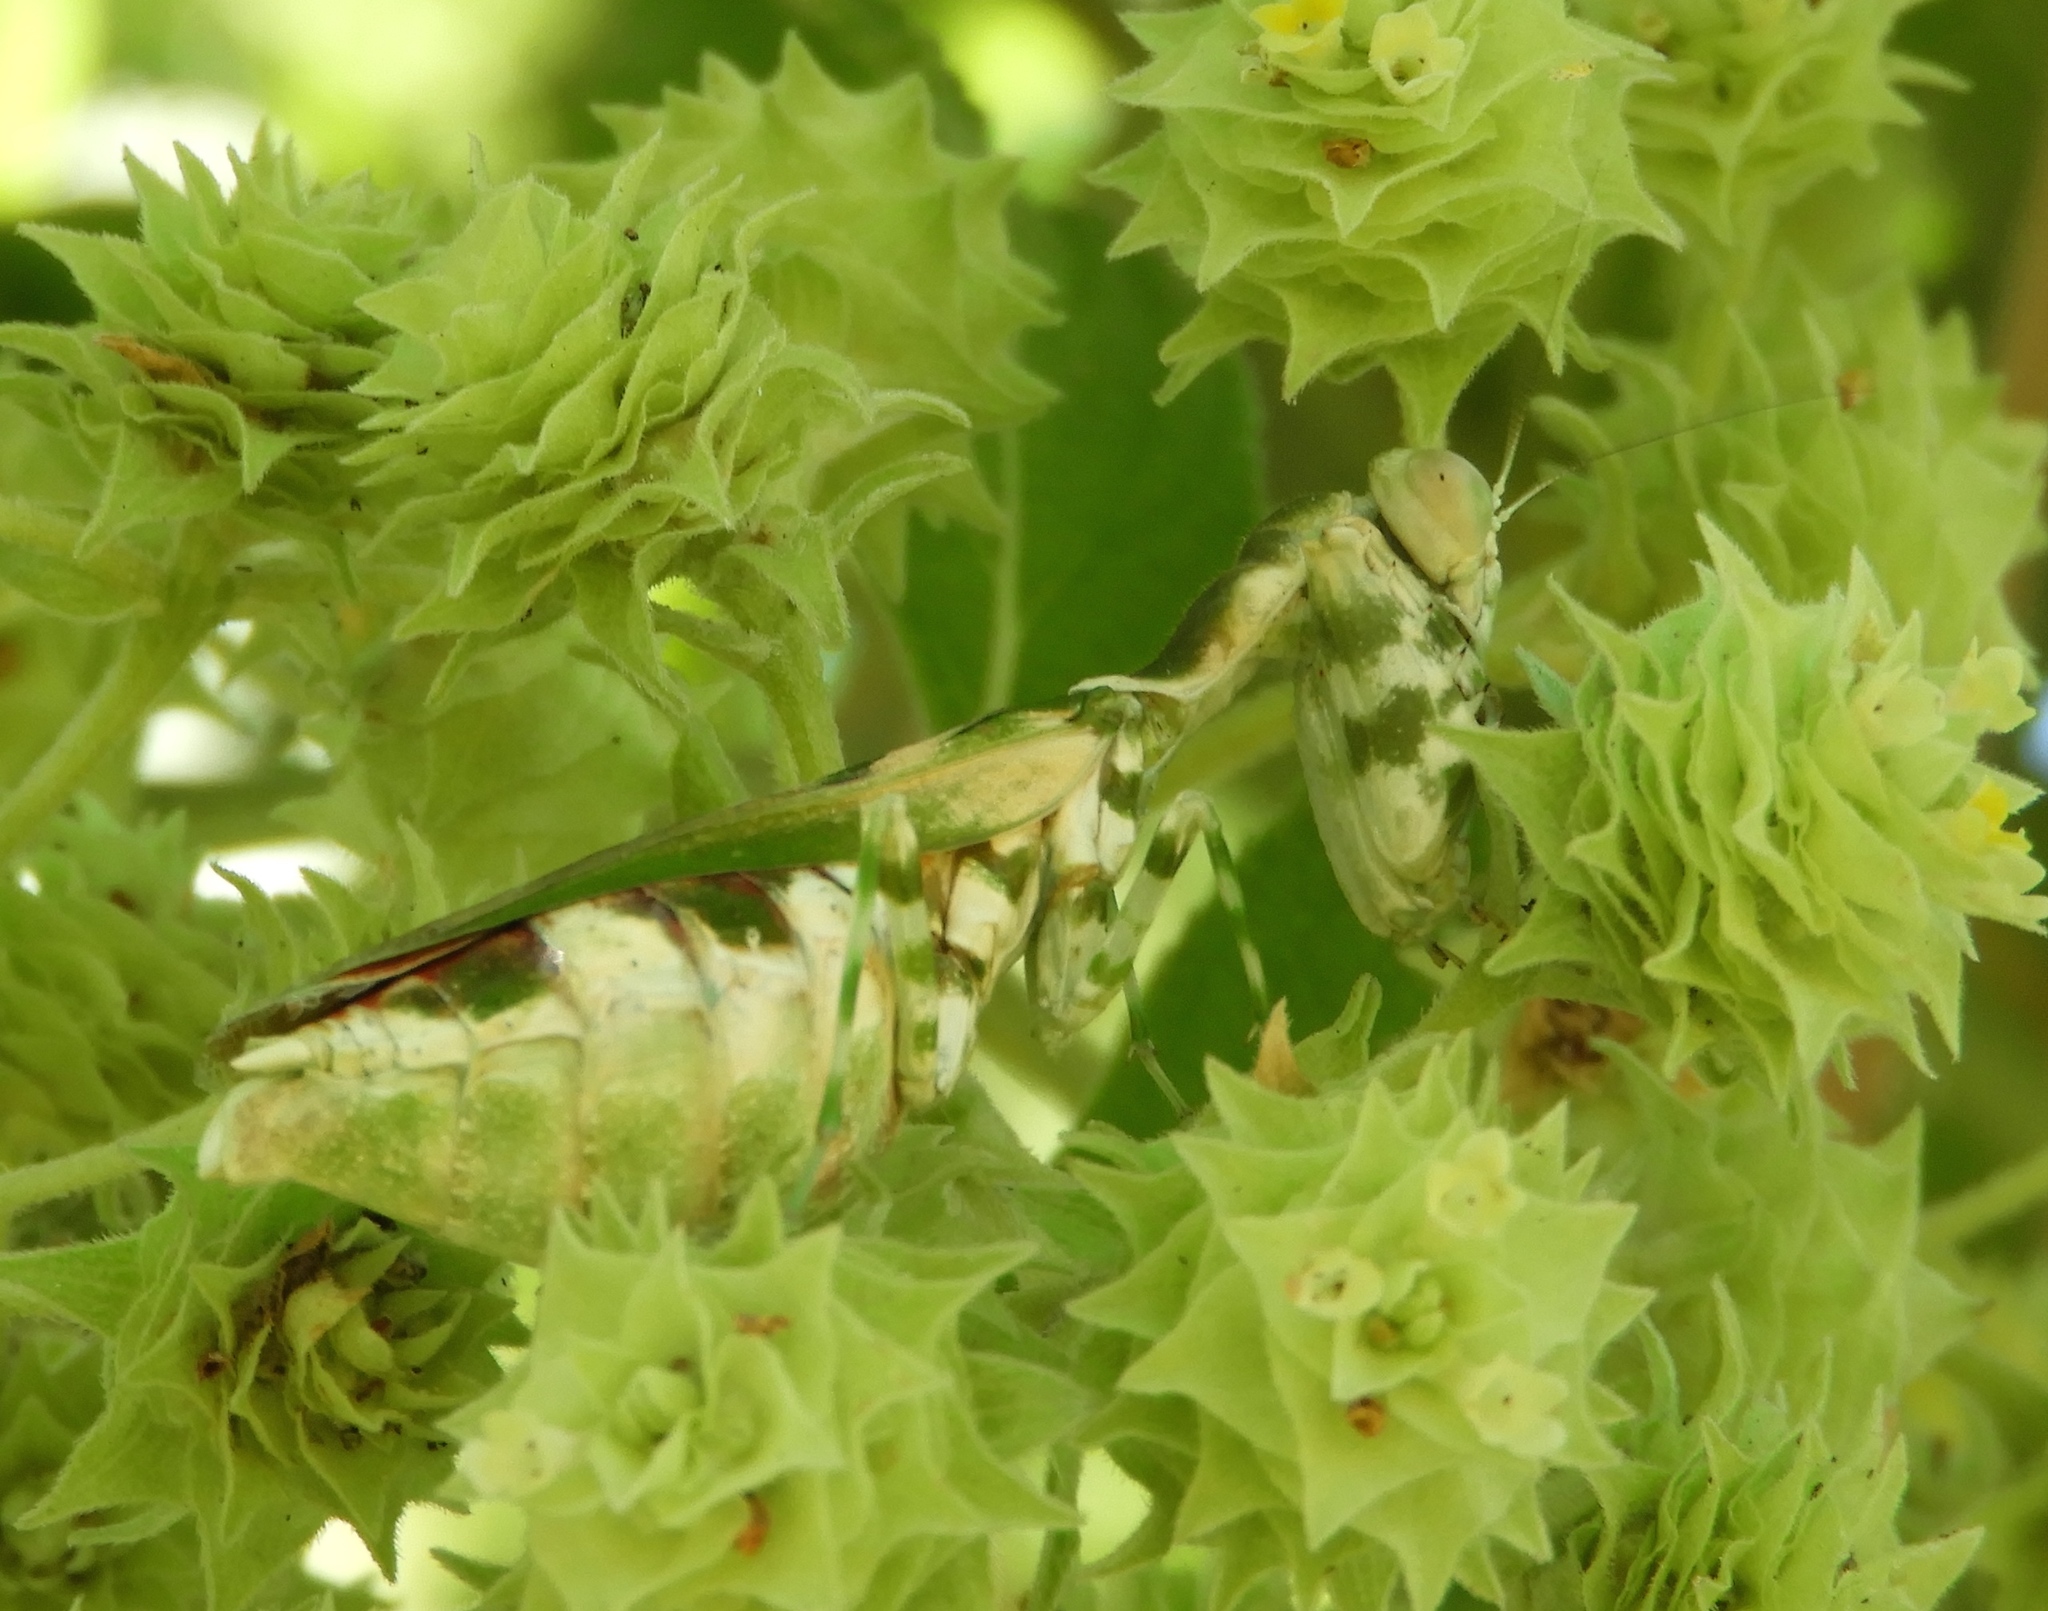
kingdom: Animalia
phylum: Arthropoda
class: Insecta
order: Mantodea
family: Acanthopidae
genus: Acontista
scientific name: Acontista cordillerae
